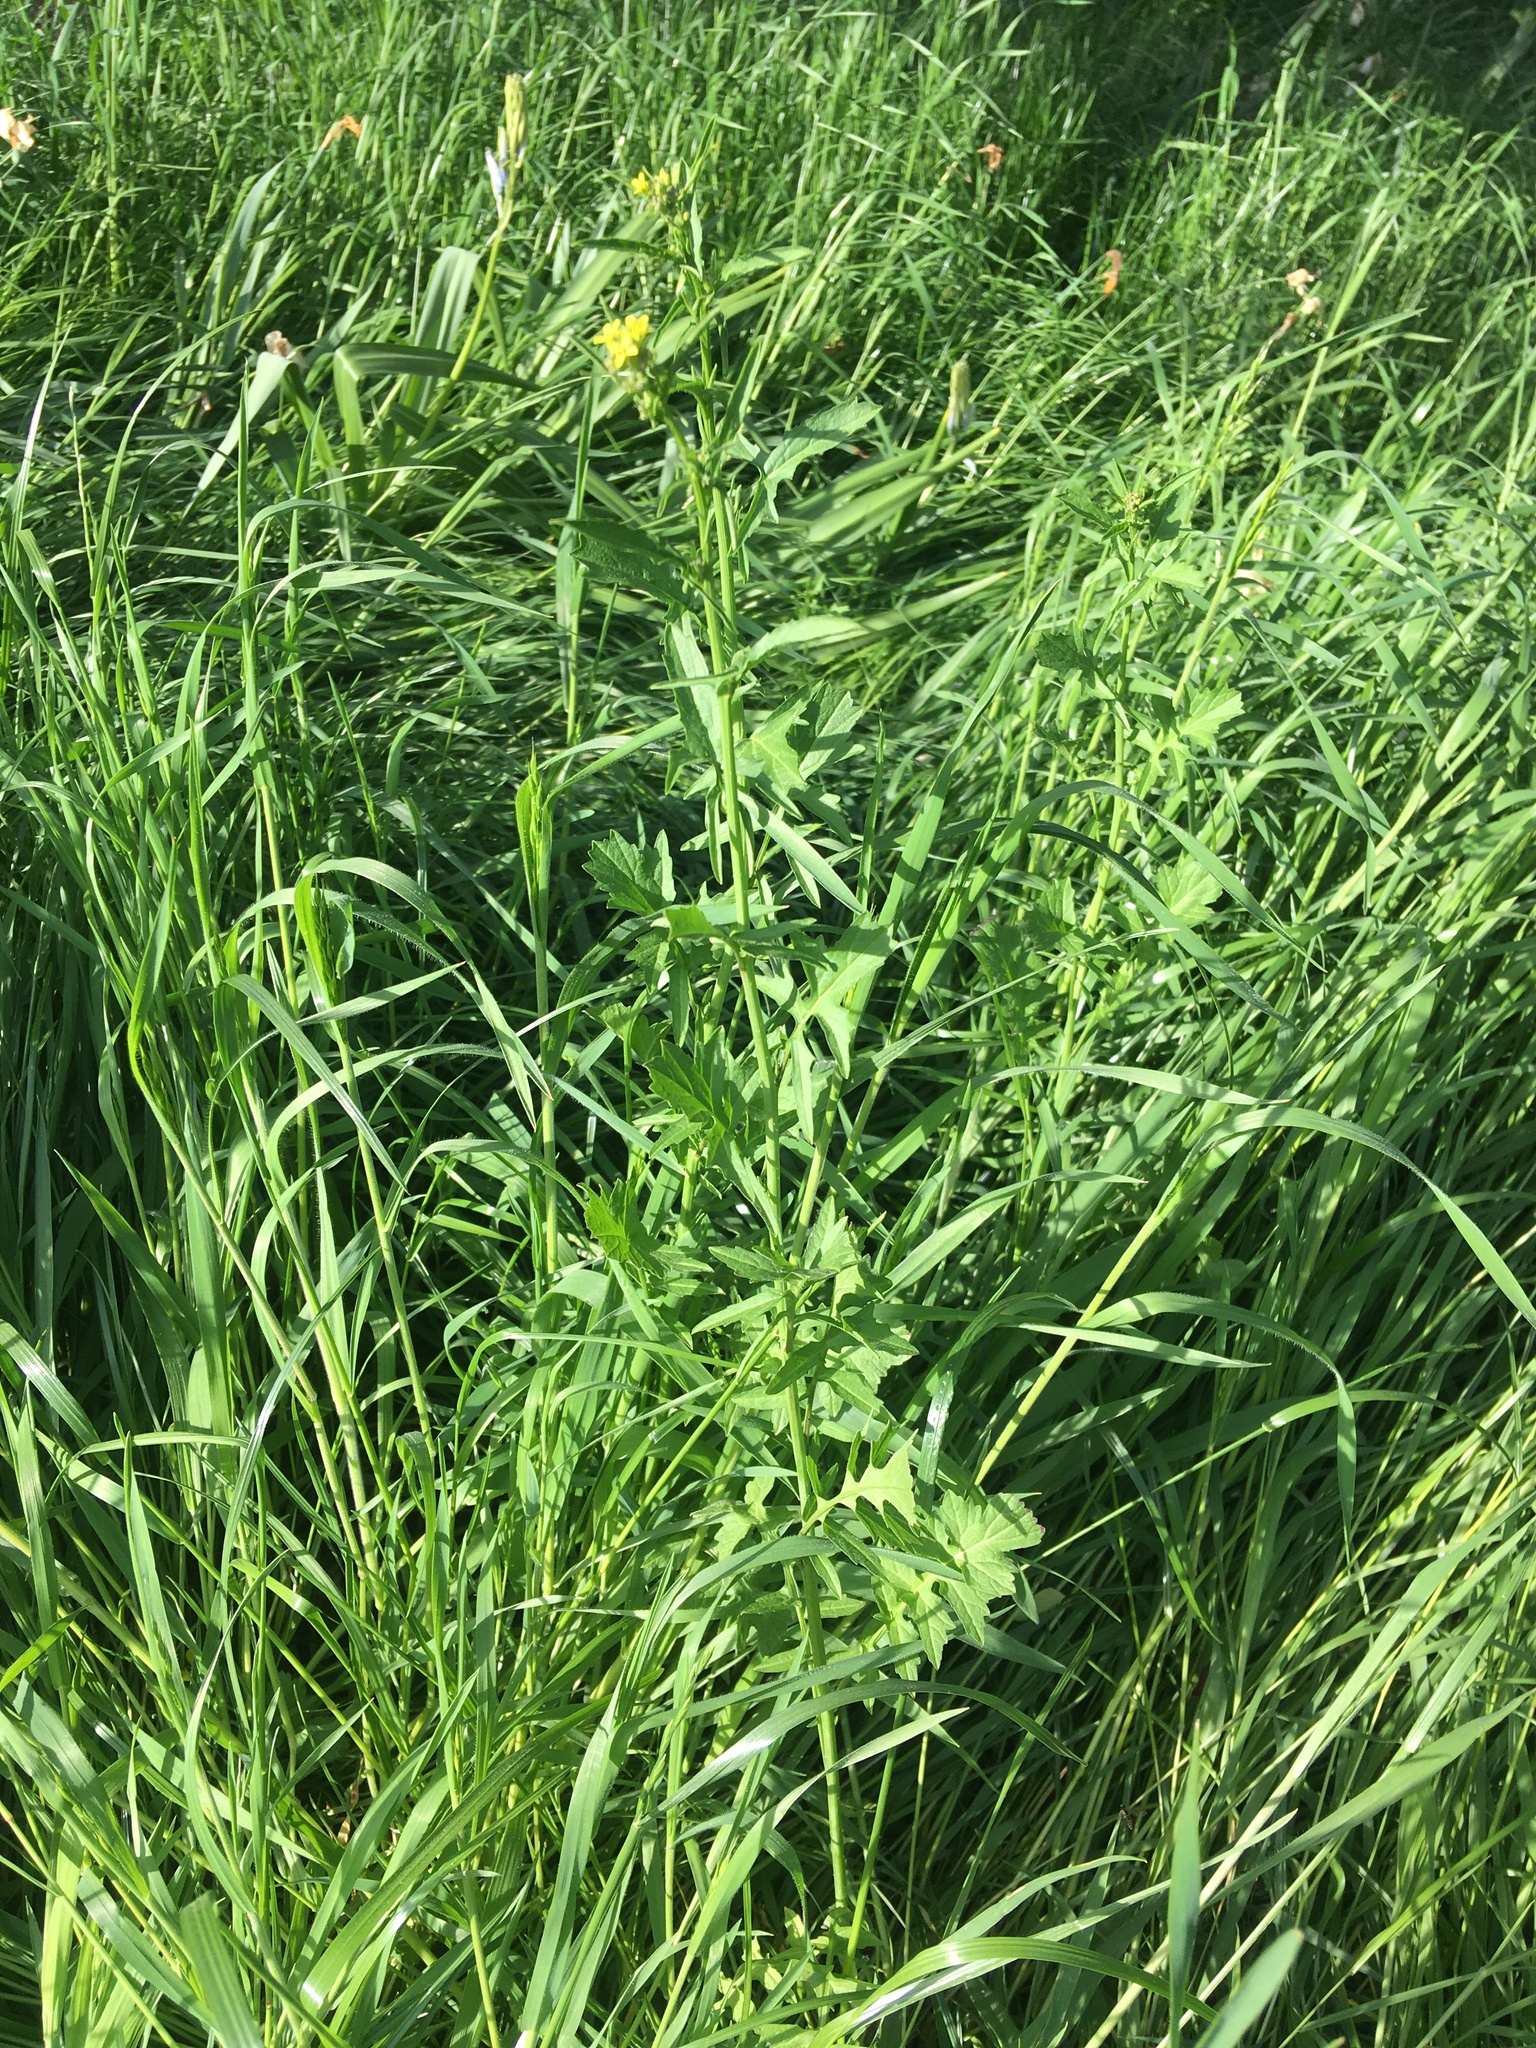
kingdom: Plantae
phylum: Tracheophyta
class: Magnoliopsida
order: Brassicales
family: Brassicaceae
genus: Sisymbrium
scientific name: Sisymbrium officinale
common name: Hedge mustard
